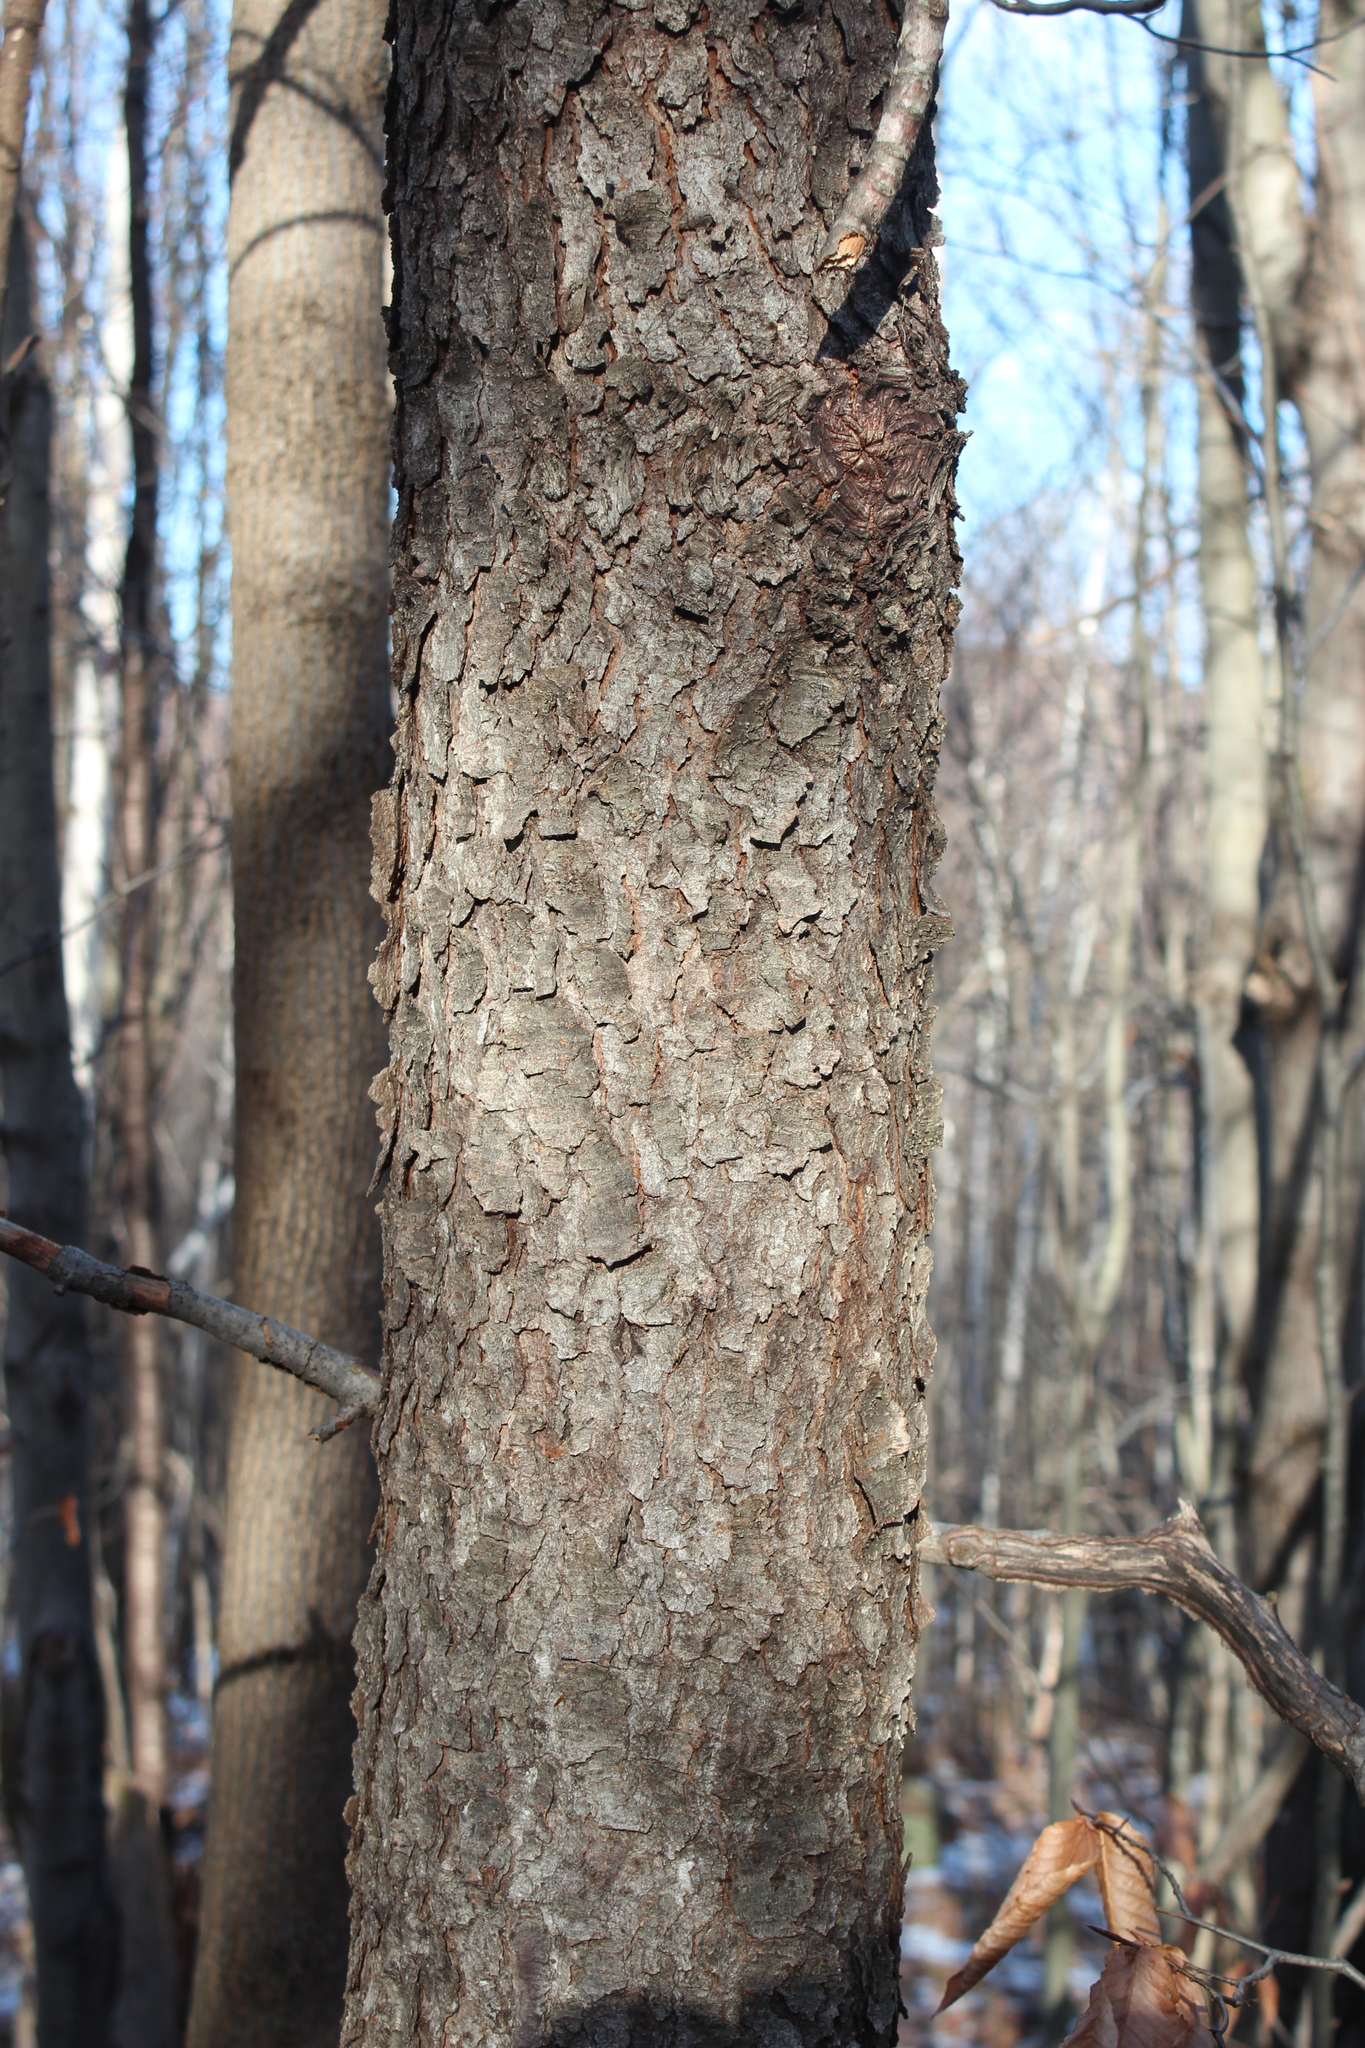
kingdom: Plantae
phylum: Tracheophyta
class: Magnoliopsida
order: Rosales
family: Rosaceae
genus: Prunus
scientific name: Prunus serotina
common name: Black cherry
